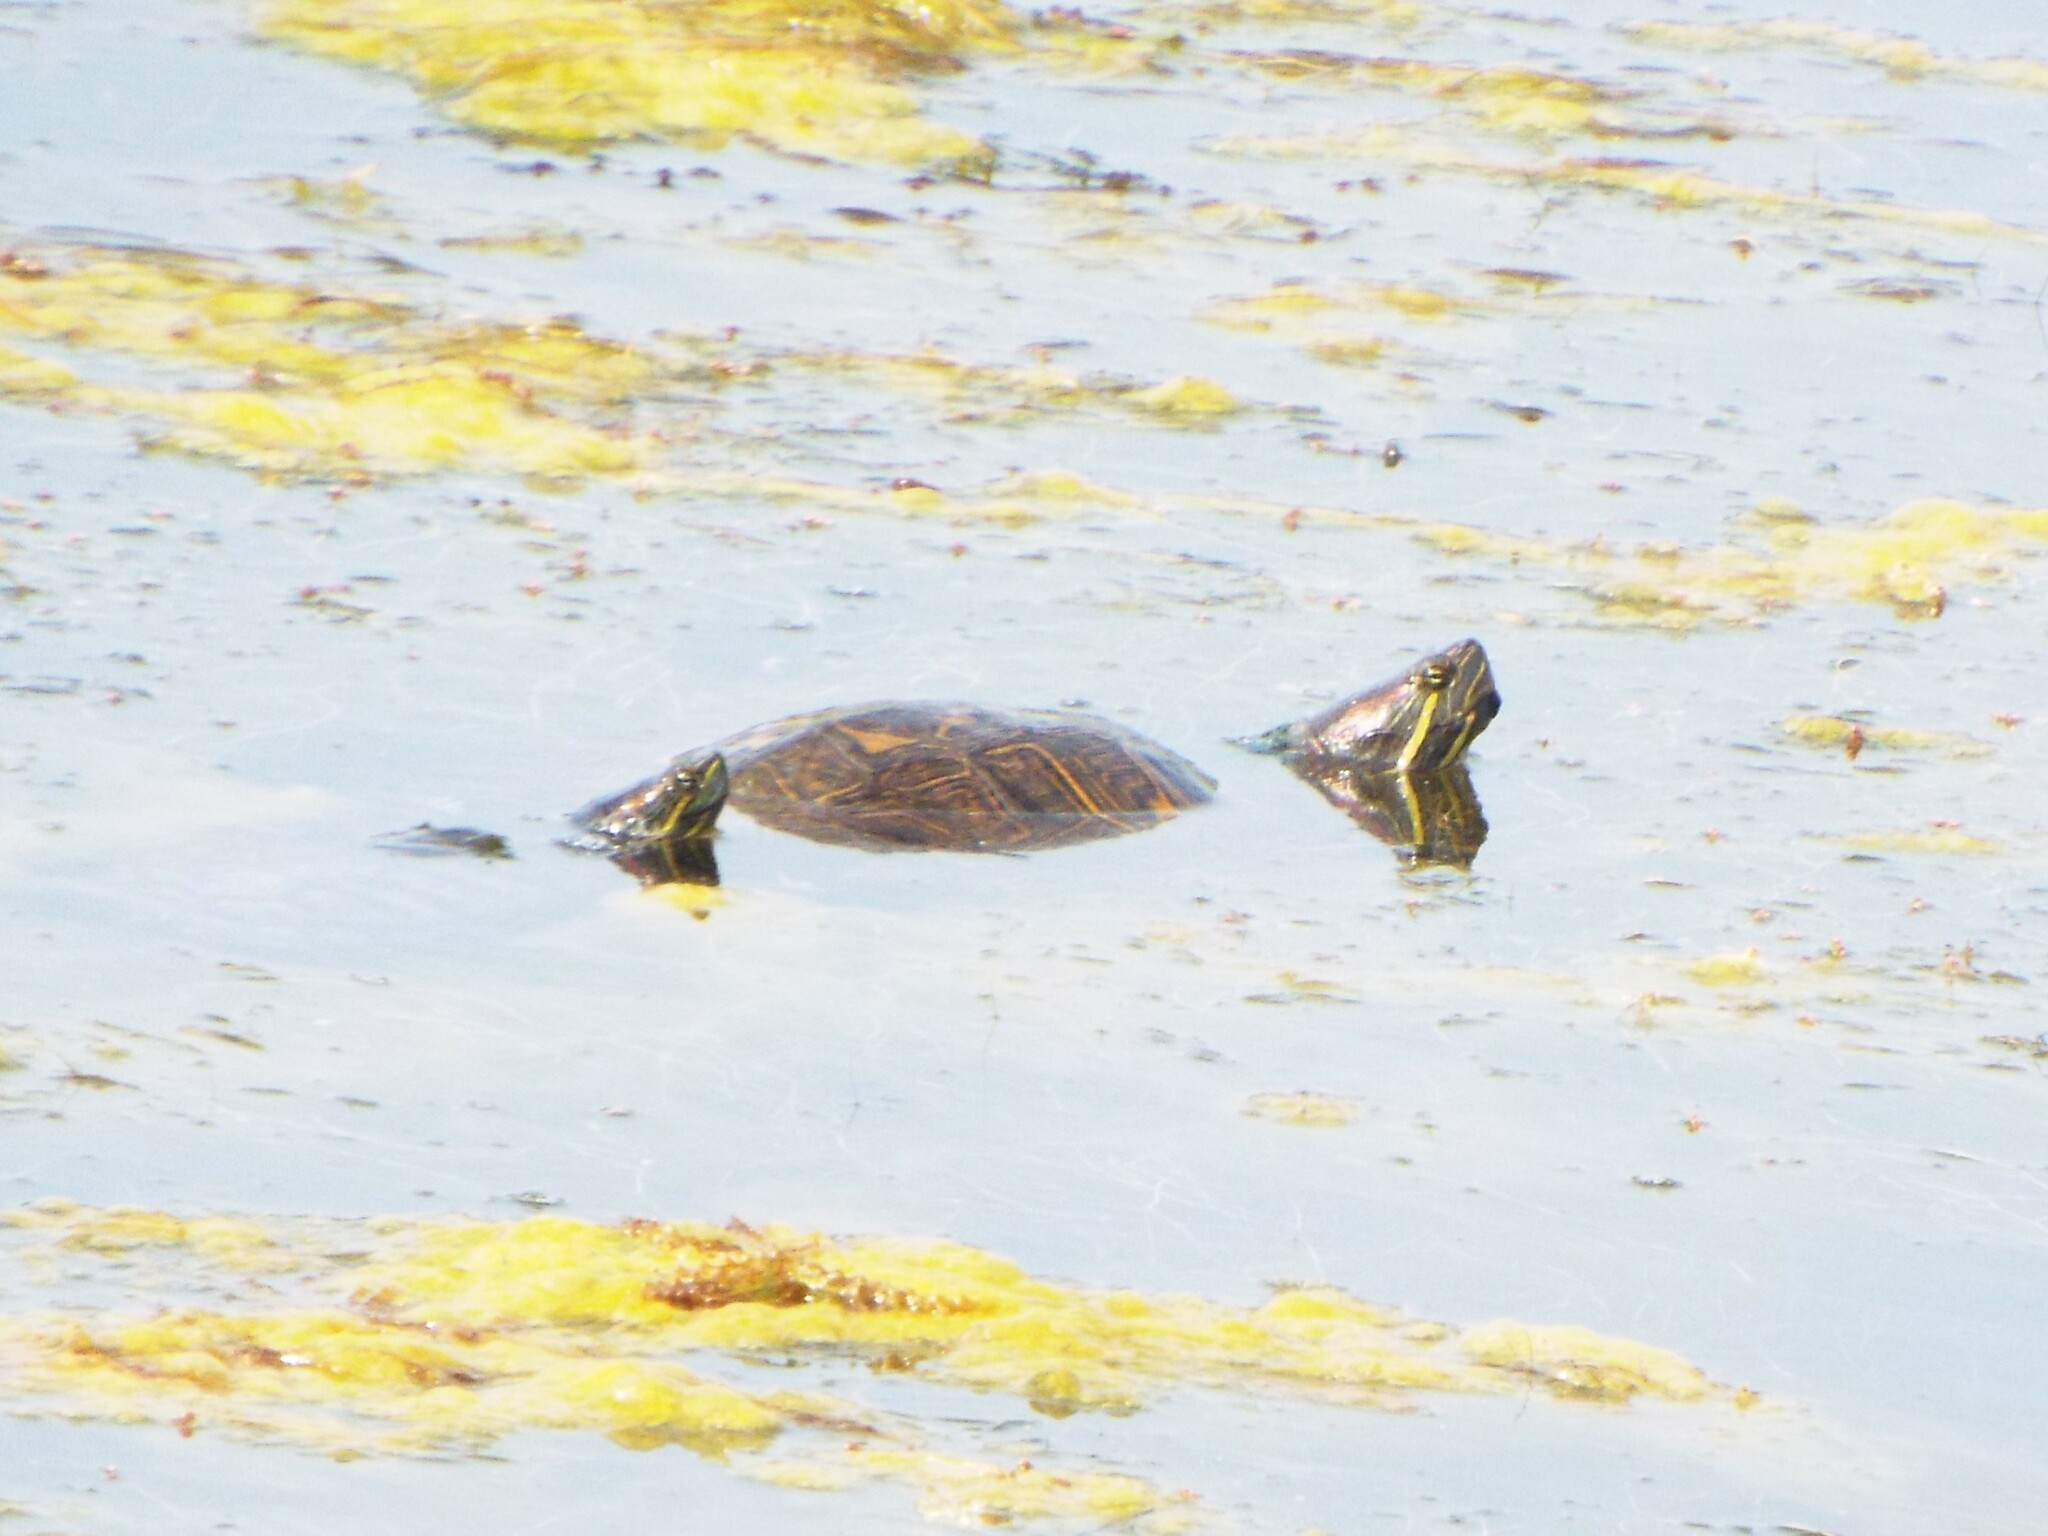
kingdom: Animalia
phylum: Chordata
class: Testudines
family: Emydidae
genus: Trachemys
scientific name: Trachemys scripta
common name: Slider
